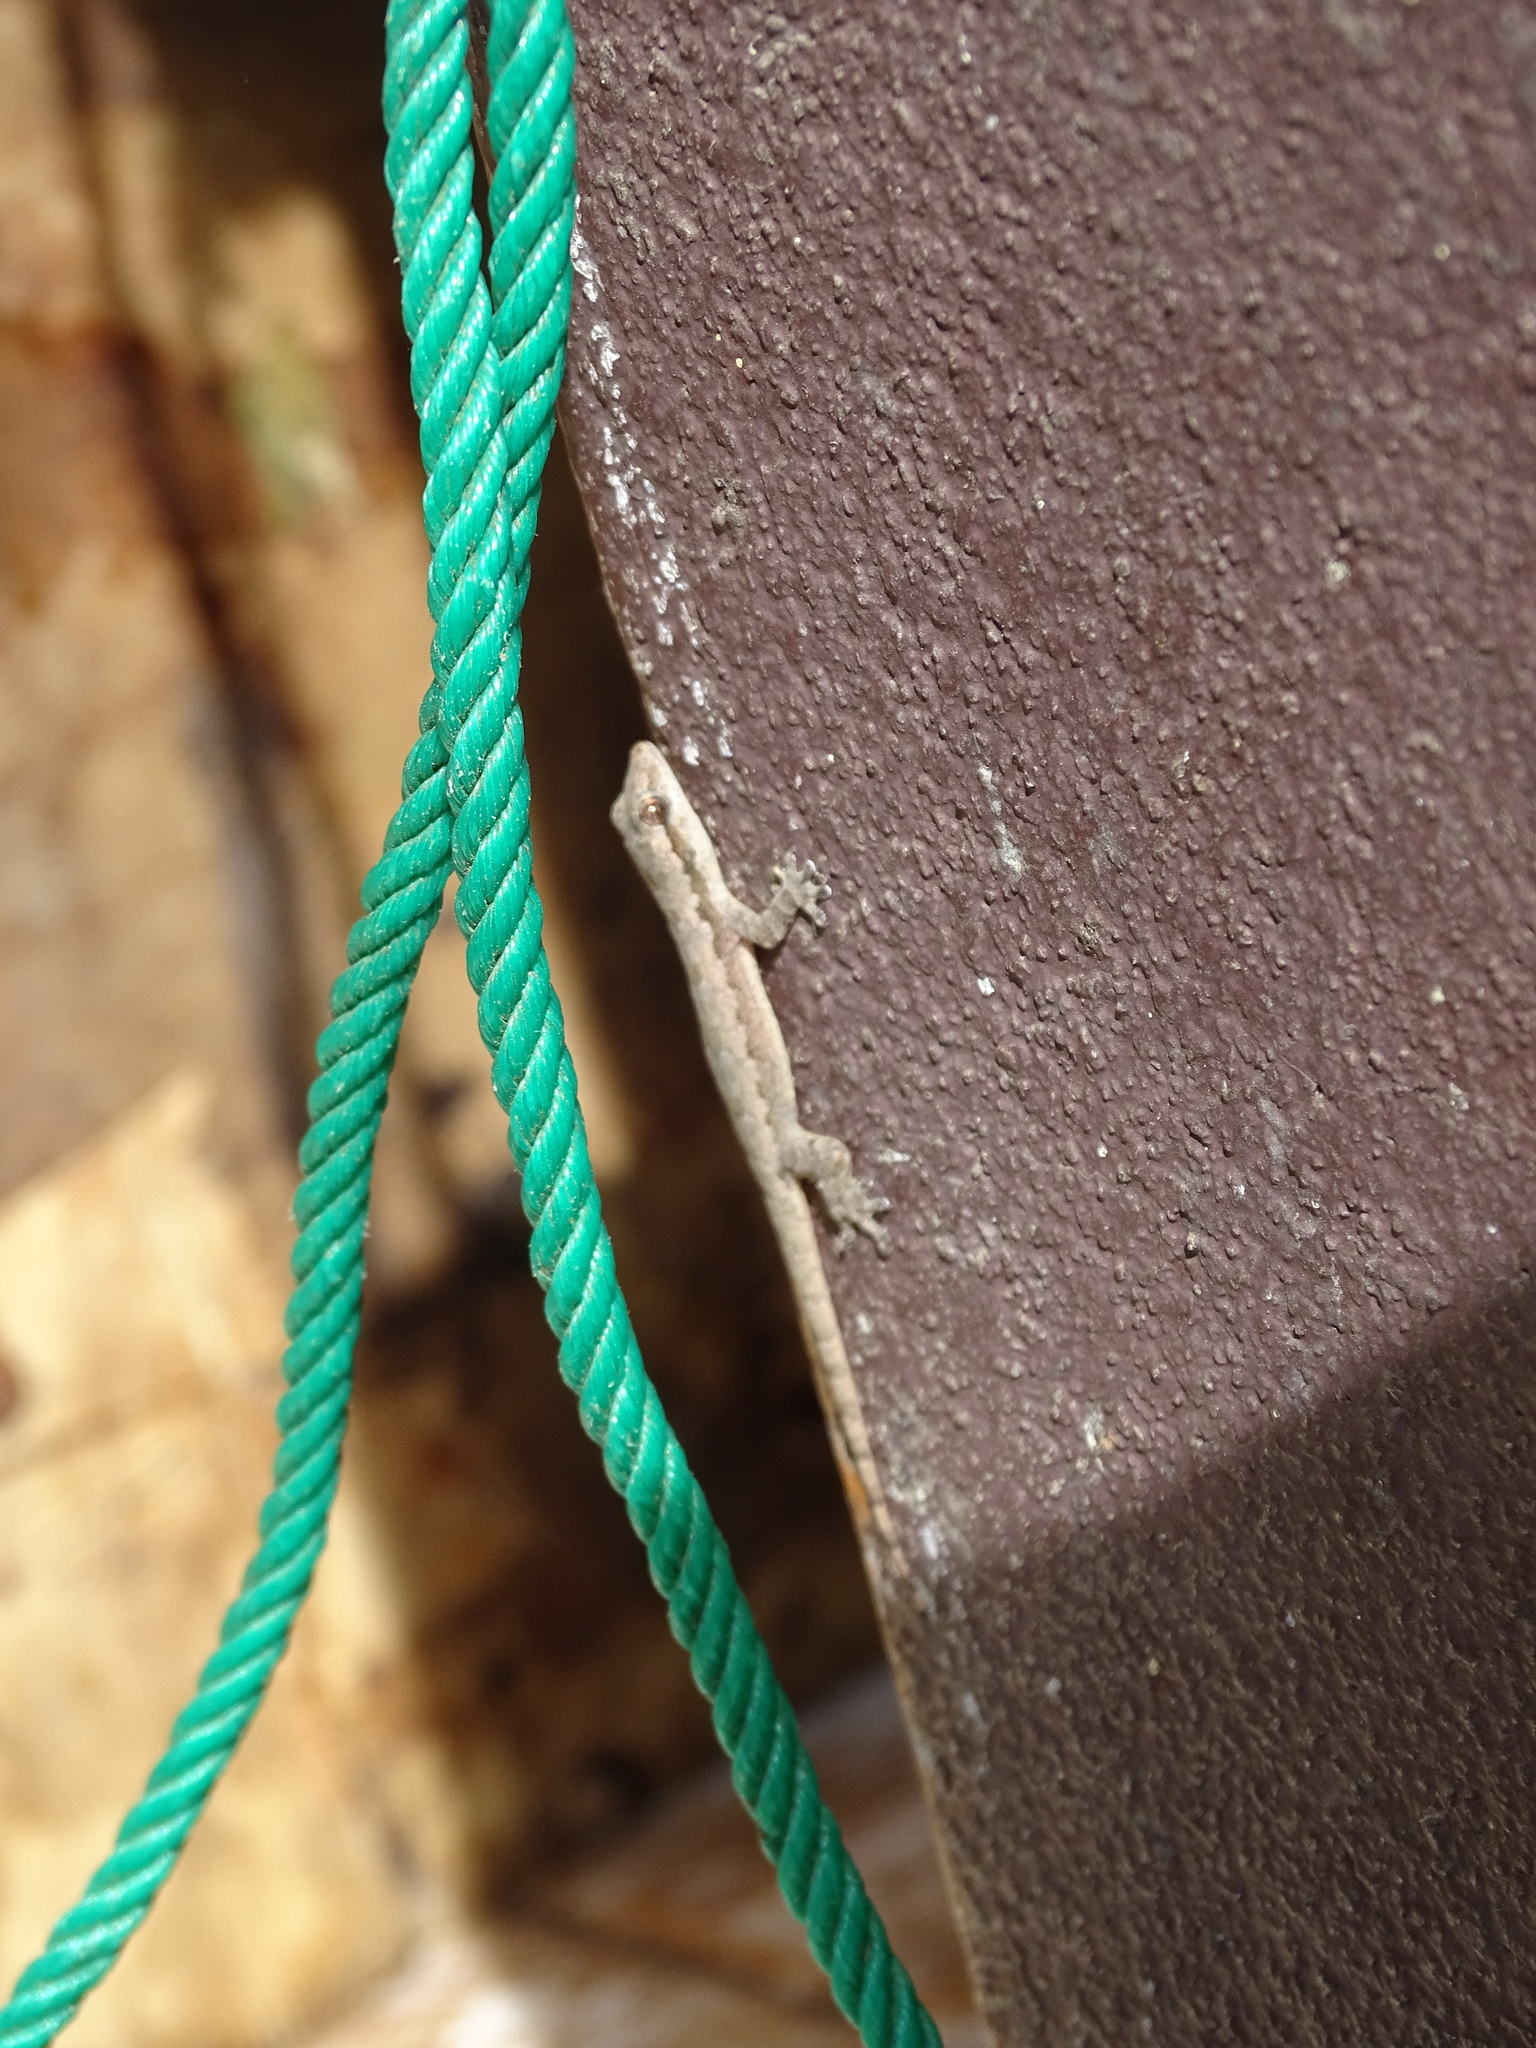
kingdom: Animalia
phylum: Chordata
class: Squamata
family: Gekkonidae
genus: Hemidactylus
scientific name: Hemidactylus platyurus
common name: Flat-tailed house gecko
